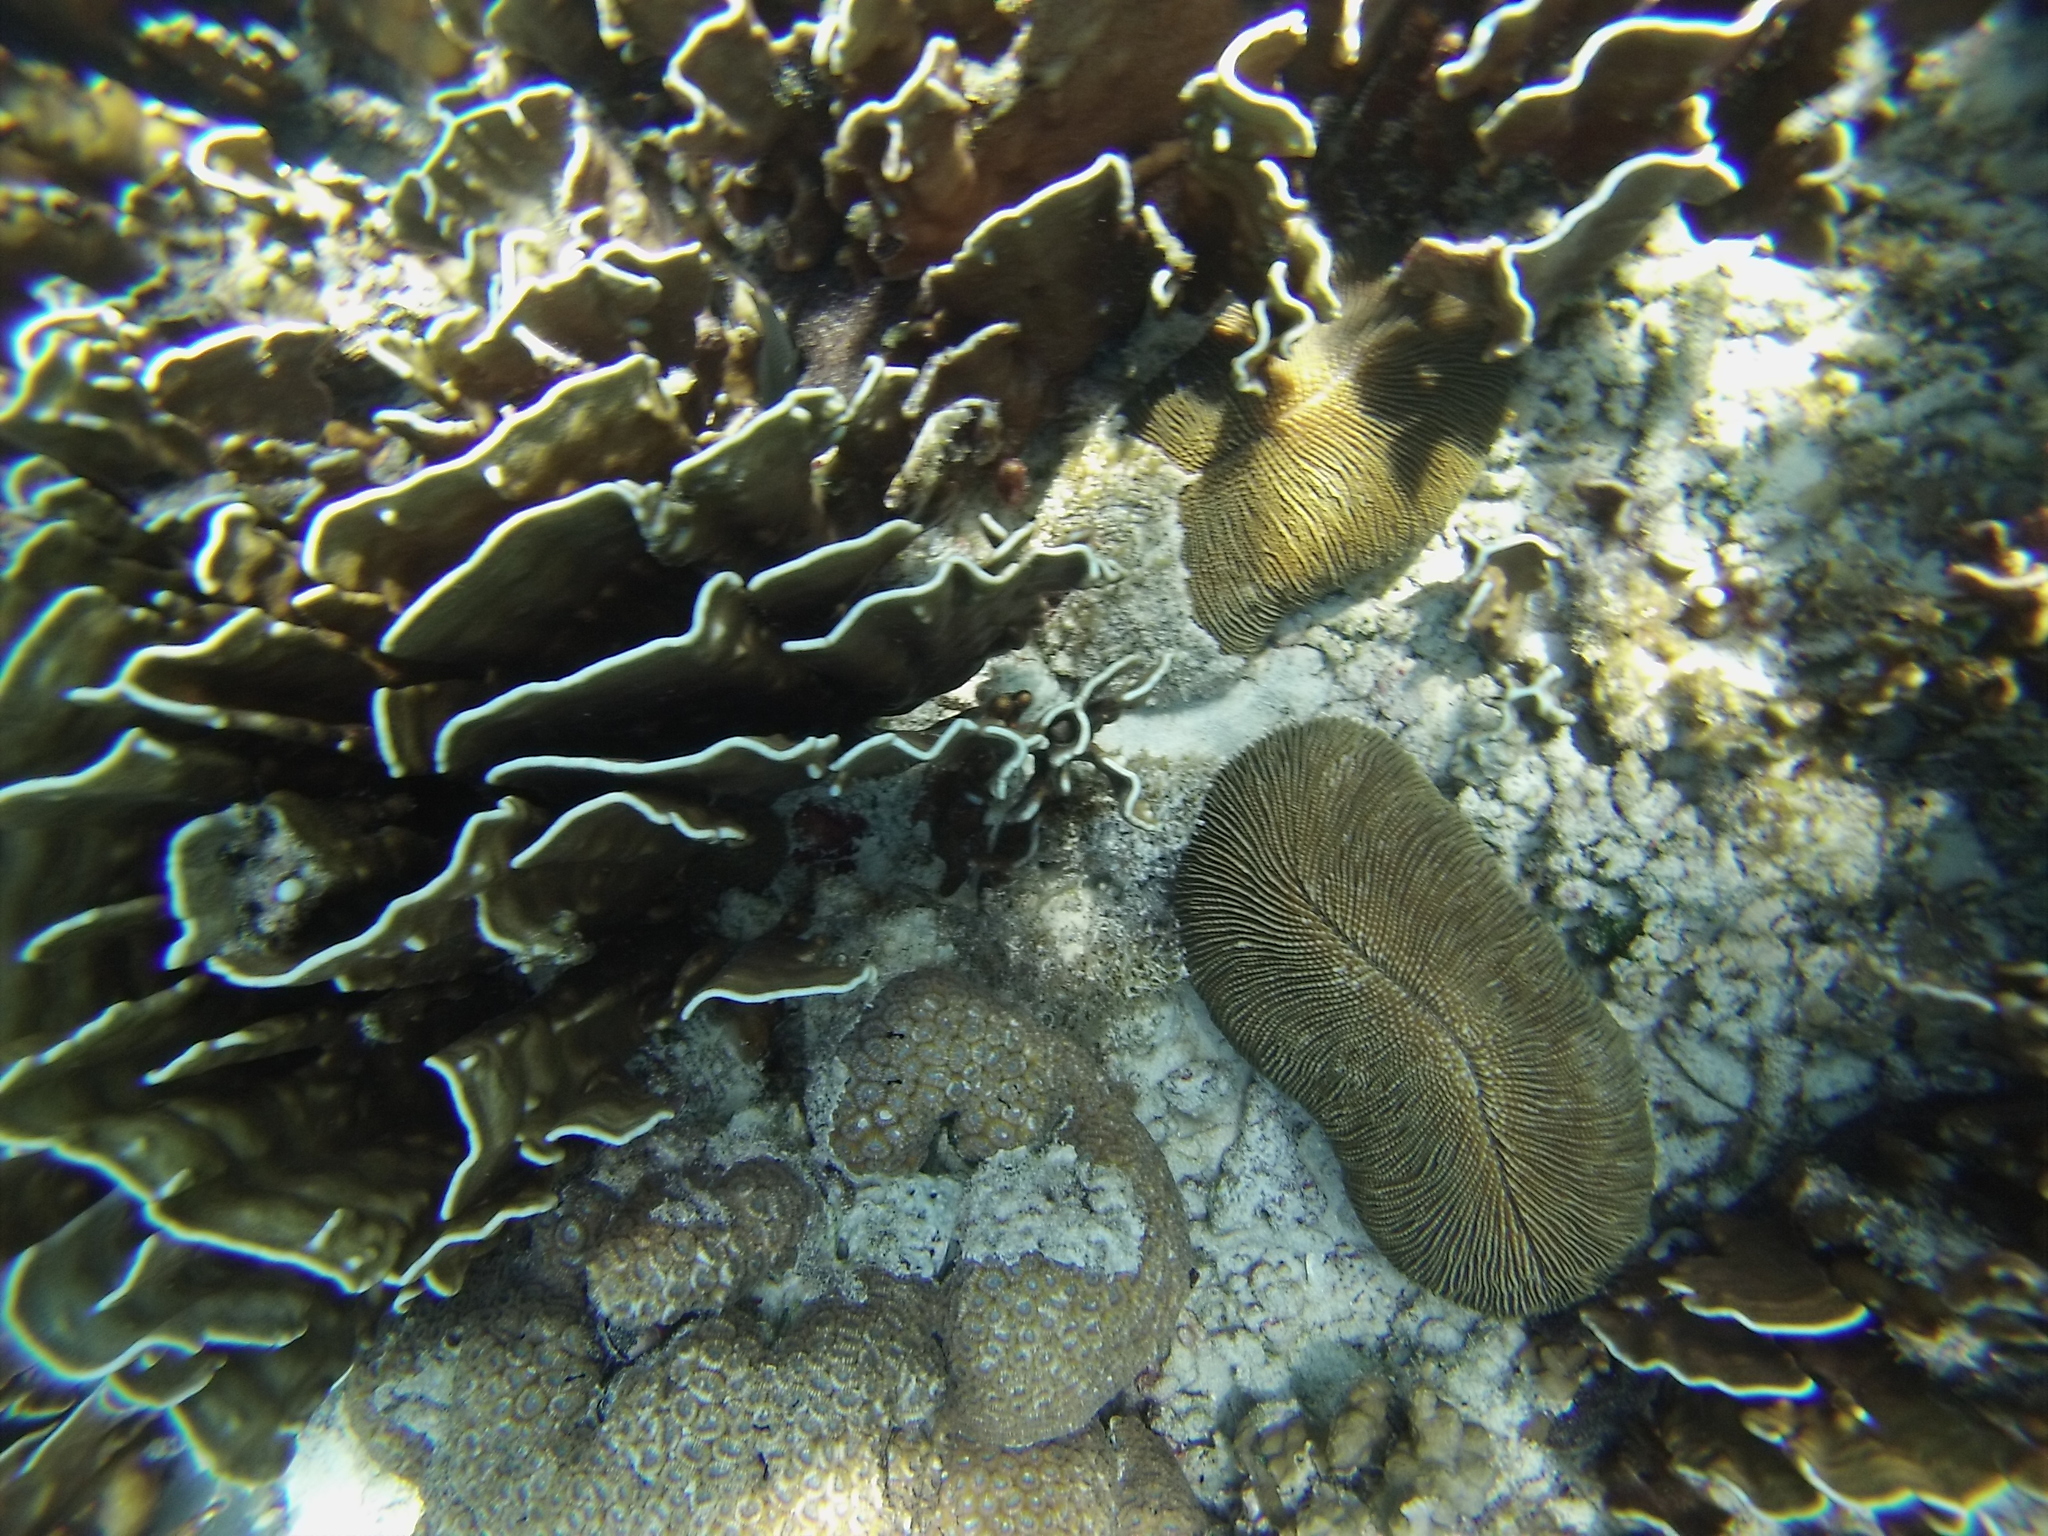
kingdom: Animalia
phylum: Cnidaria
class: Anthozoa
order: Scleractinia
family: Fungiidae
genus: Ctenactis
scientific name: Ctenactis echinata
